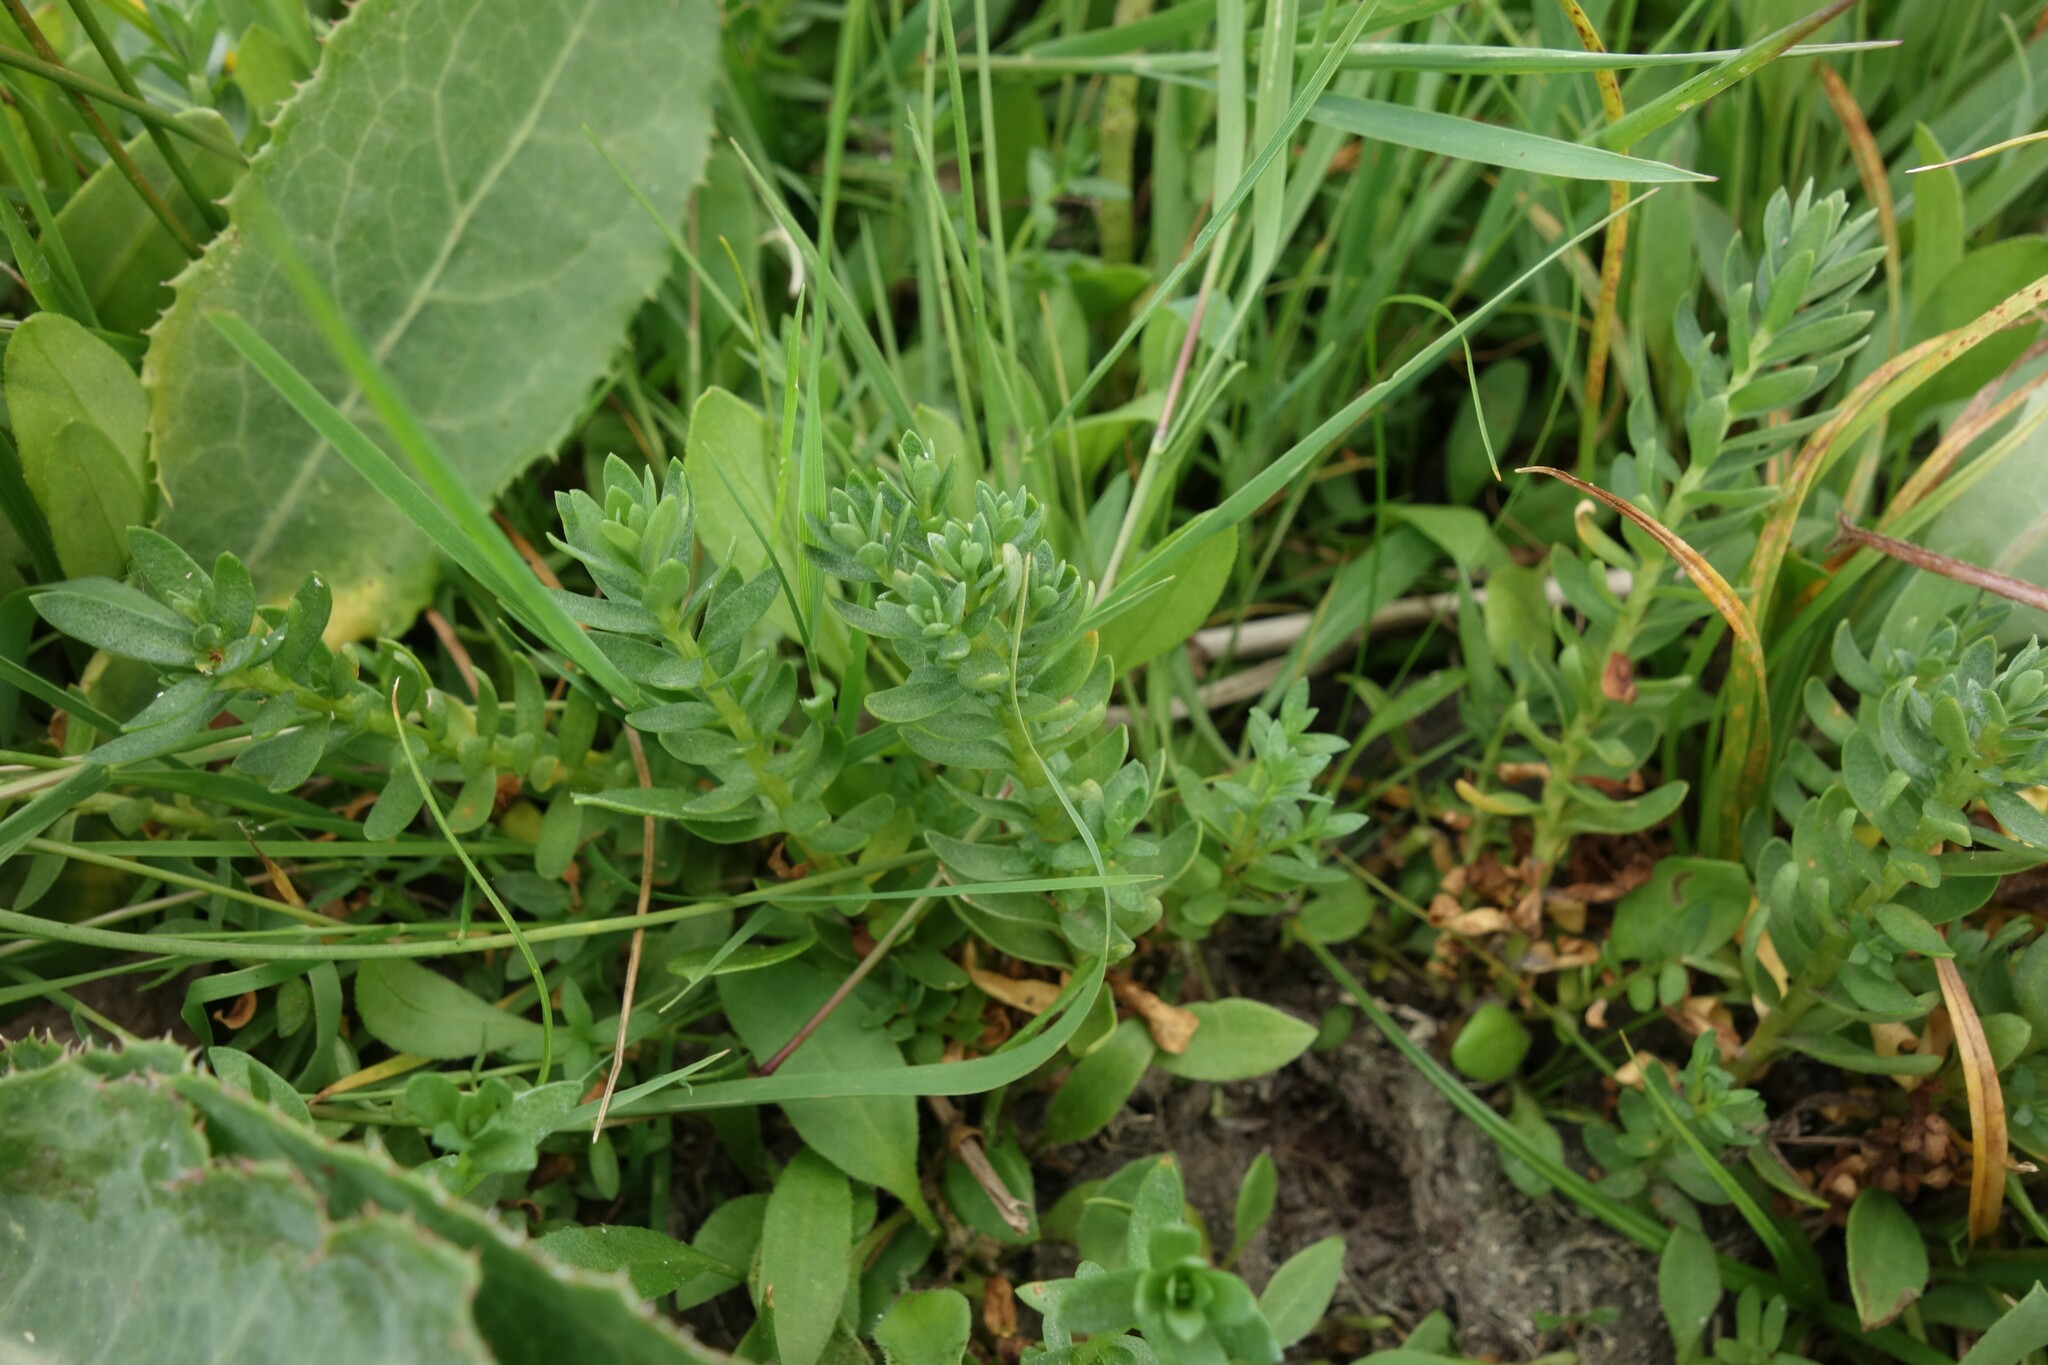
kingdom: Plantae
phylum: Tracheophyta
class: Magnoliopsida
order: Ericales
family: Primulaceae
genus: Lysimachia
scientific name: Lysimachia maritima
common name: Sea milkwort
